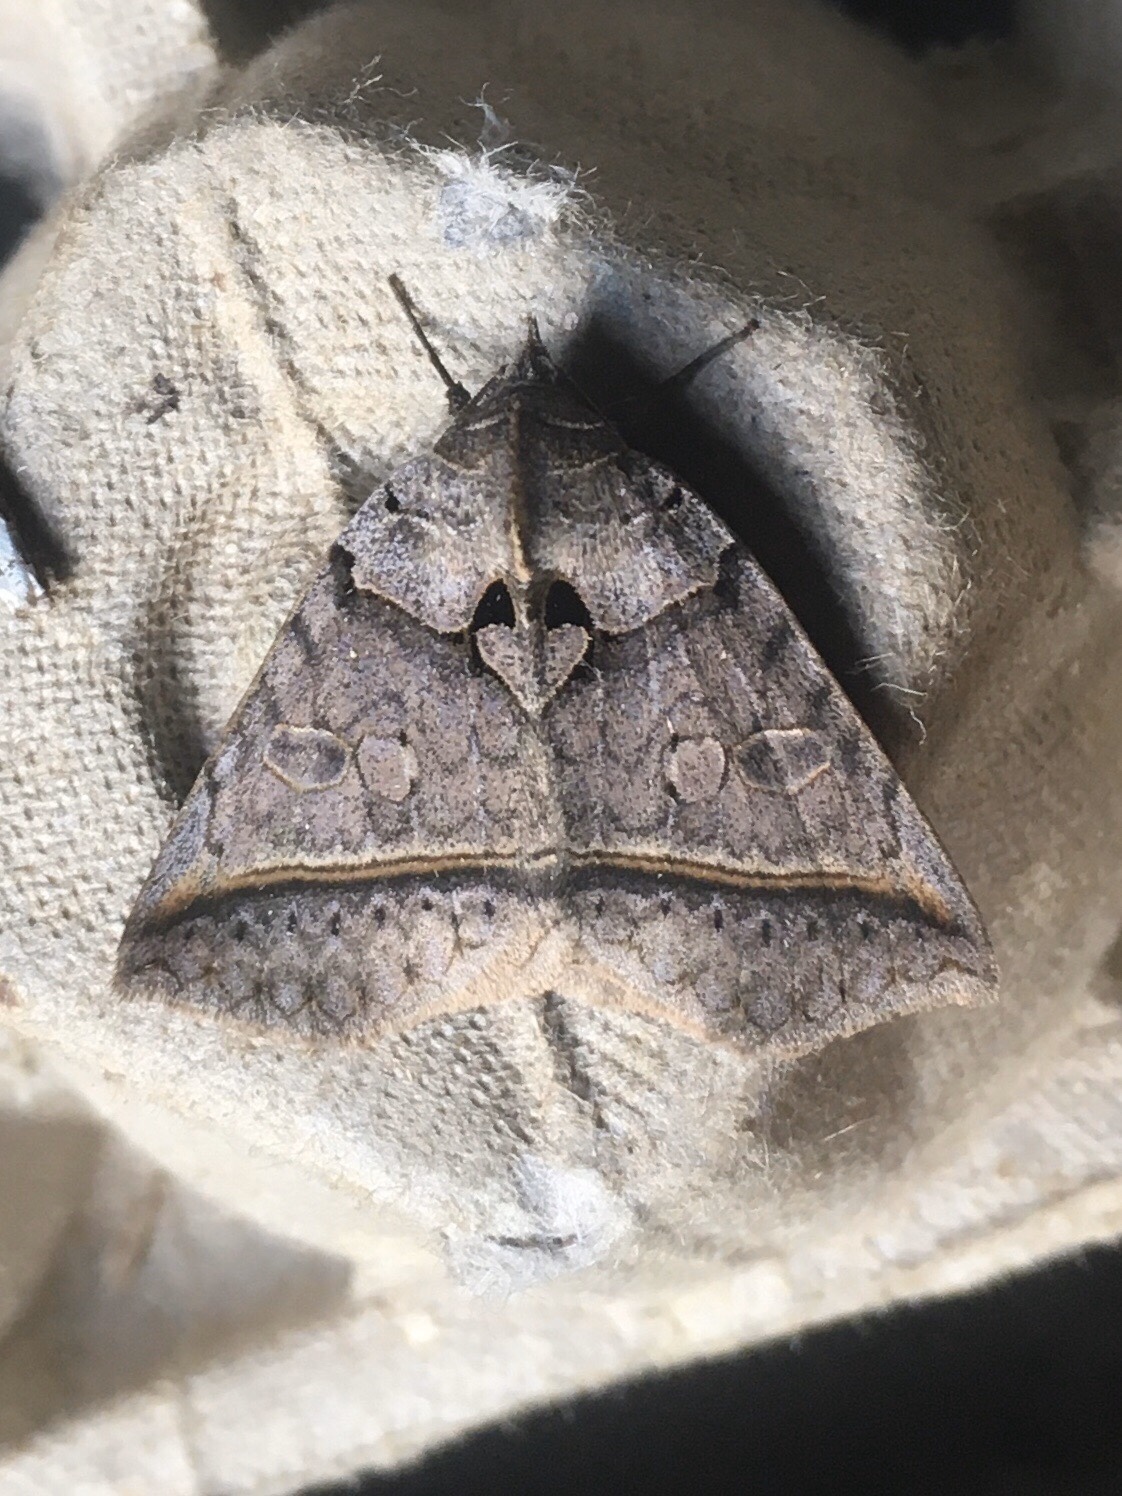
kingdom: Animalia
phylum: Arthropoda
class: Insecta
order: Lepidoptera
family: Erebidae
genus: Celiptera
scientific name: Celiptera frustulum
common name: Black bit moth
